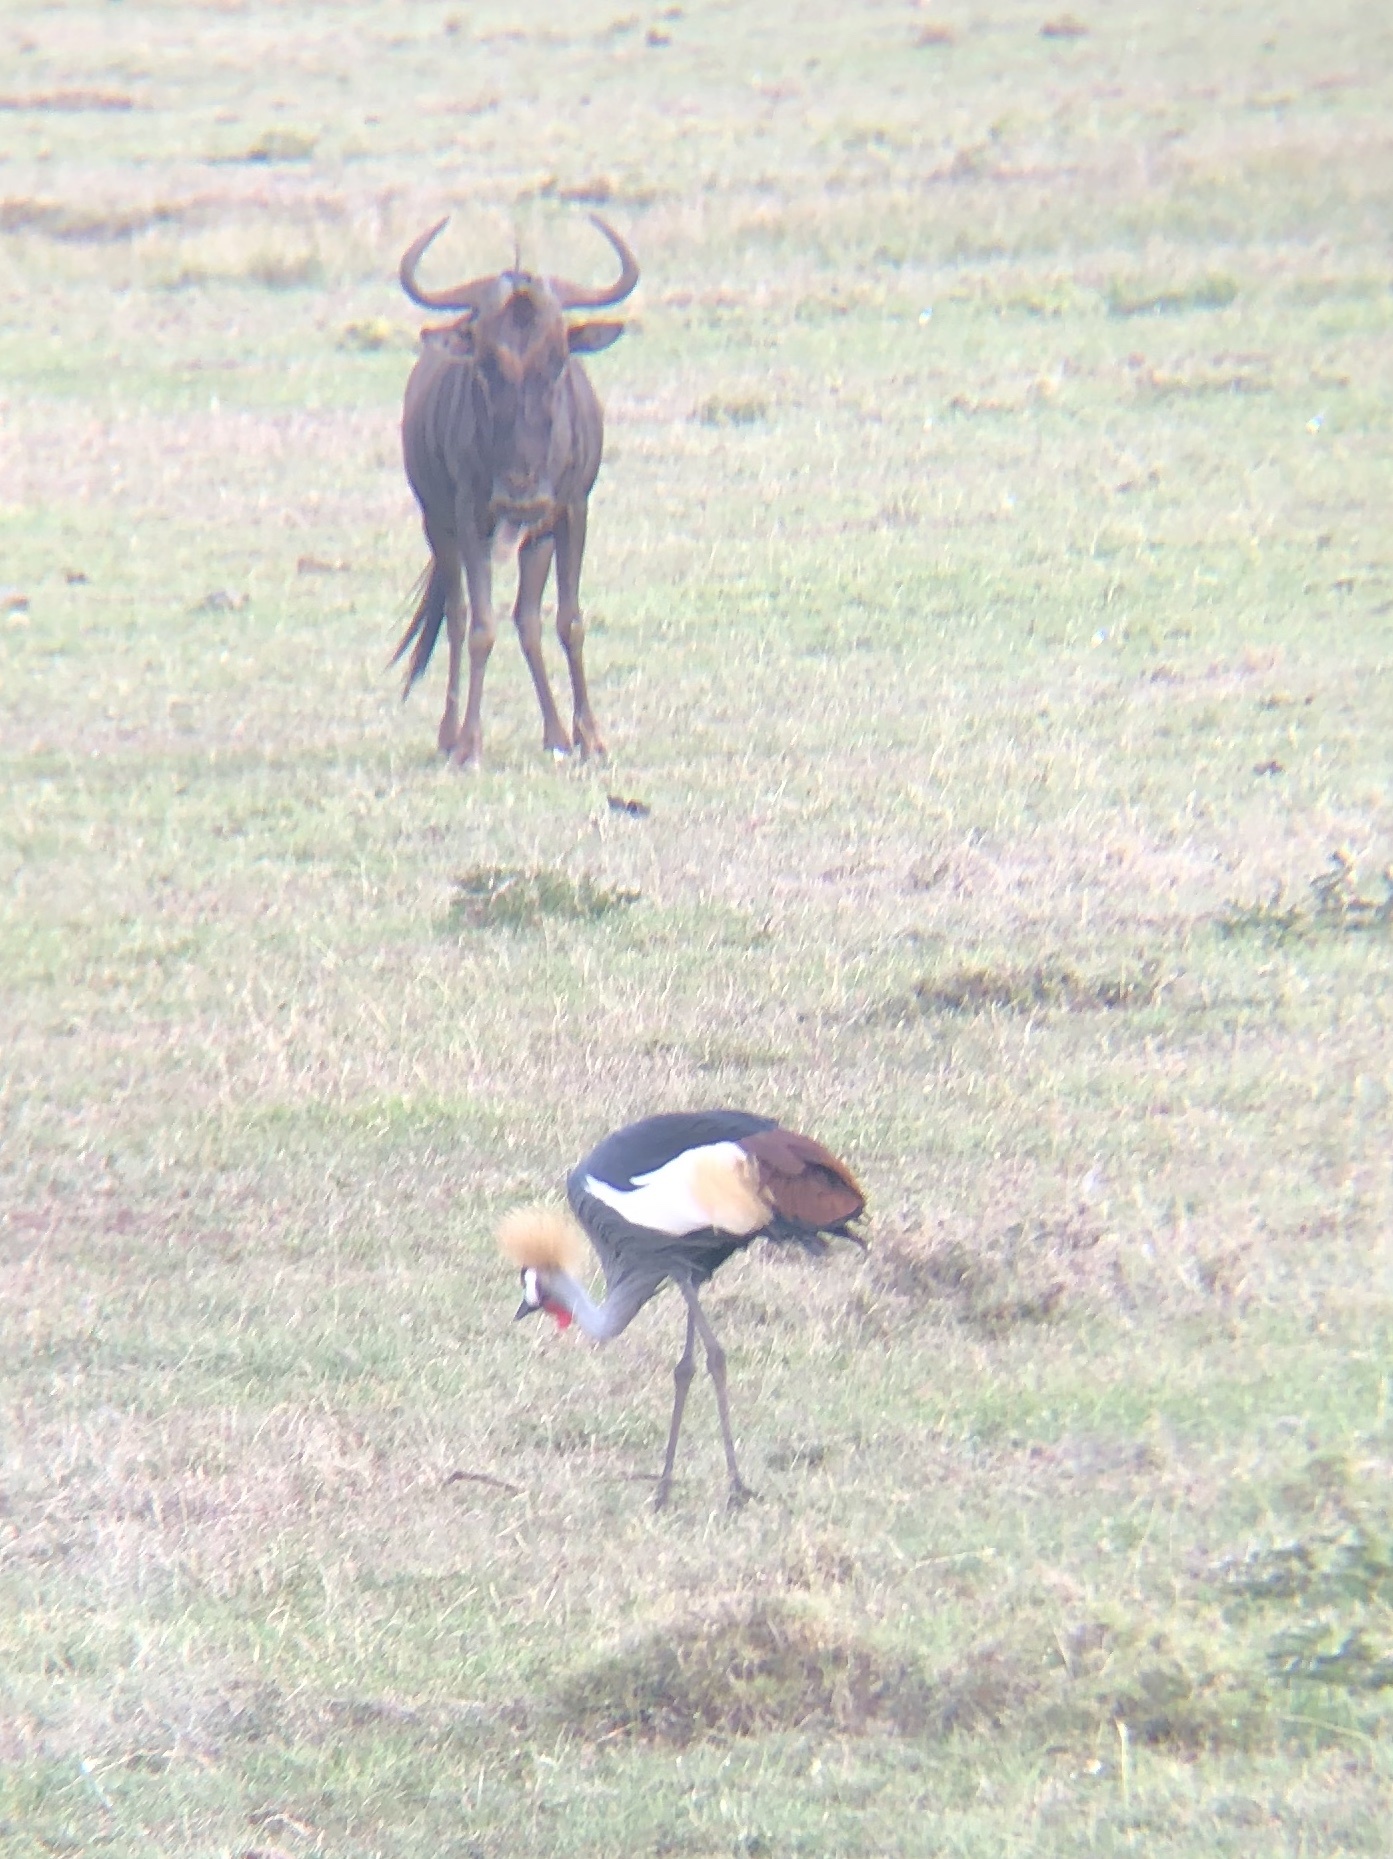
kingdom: Animalia
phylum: Chordata
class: Mammalia
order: Artiodactyla
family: Bovidae
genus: Connochaetes
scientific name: Connochaetes taurinus
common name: Blue wildebeest
